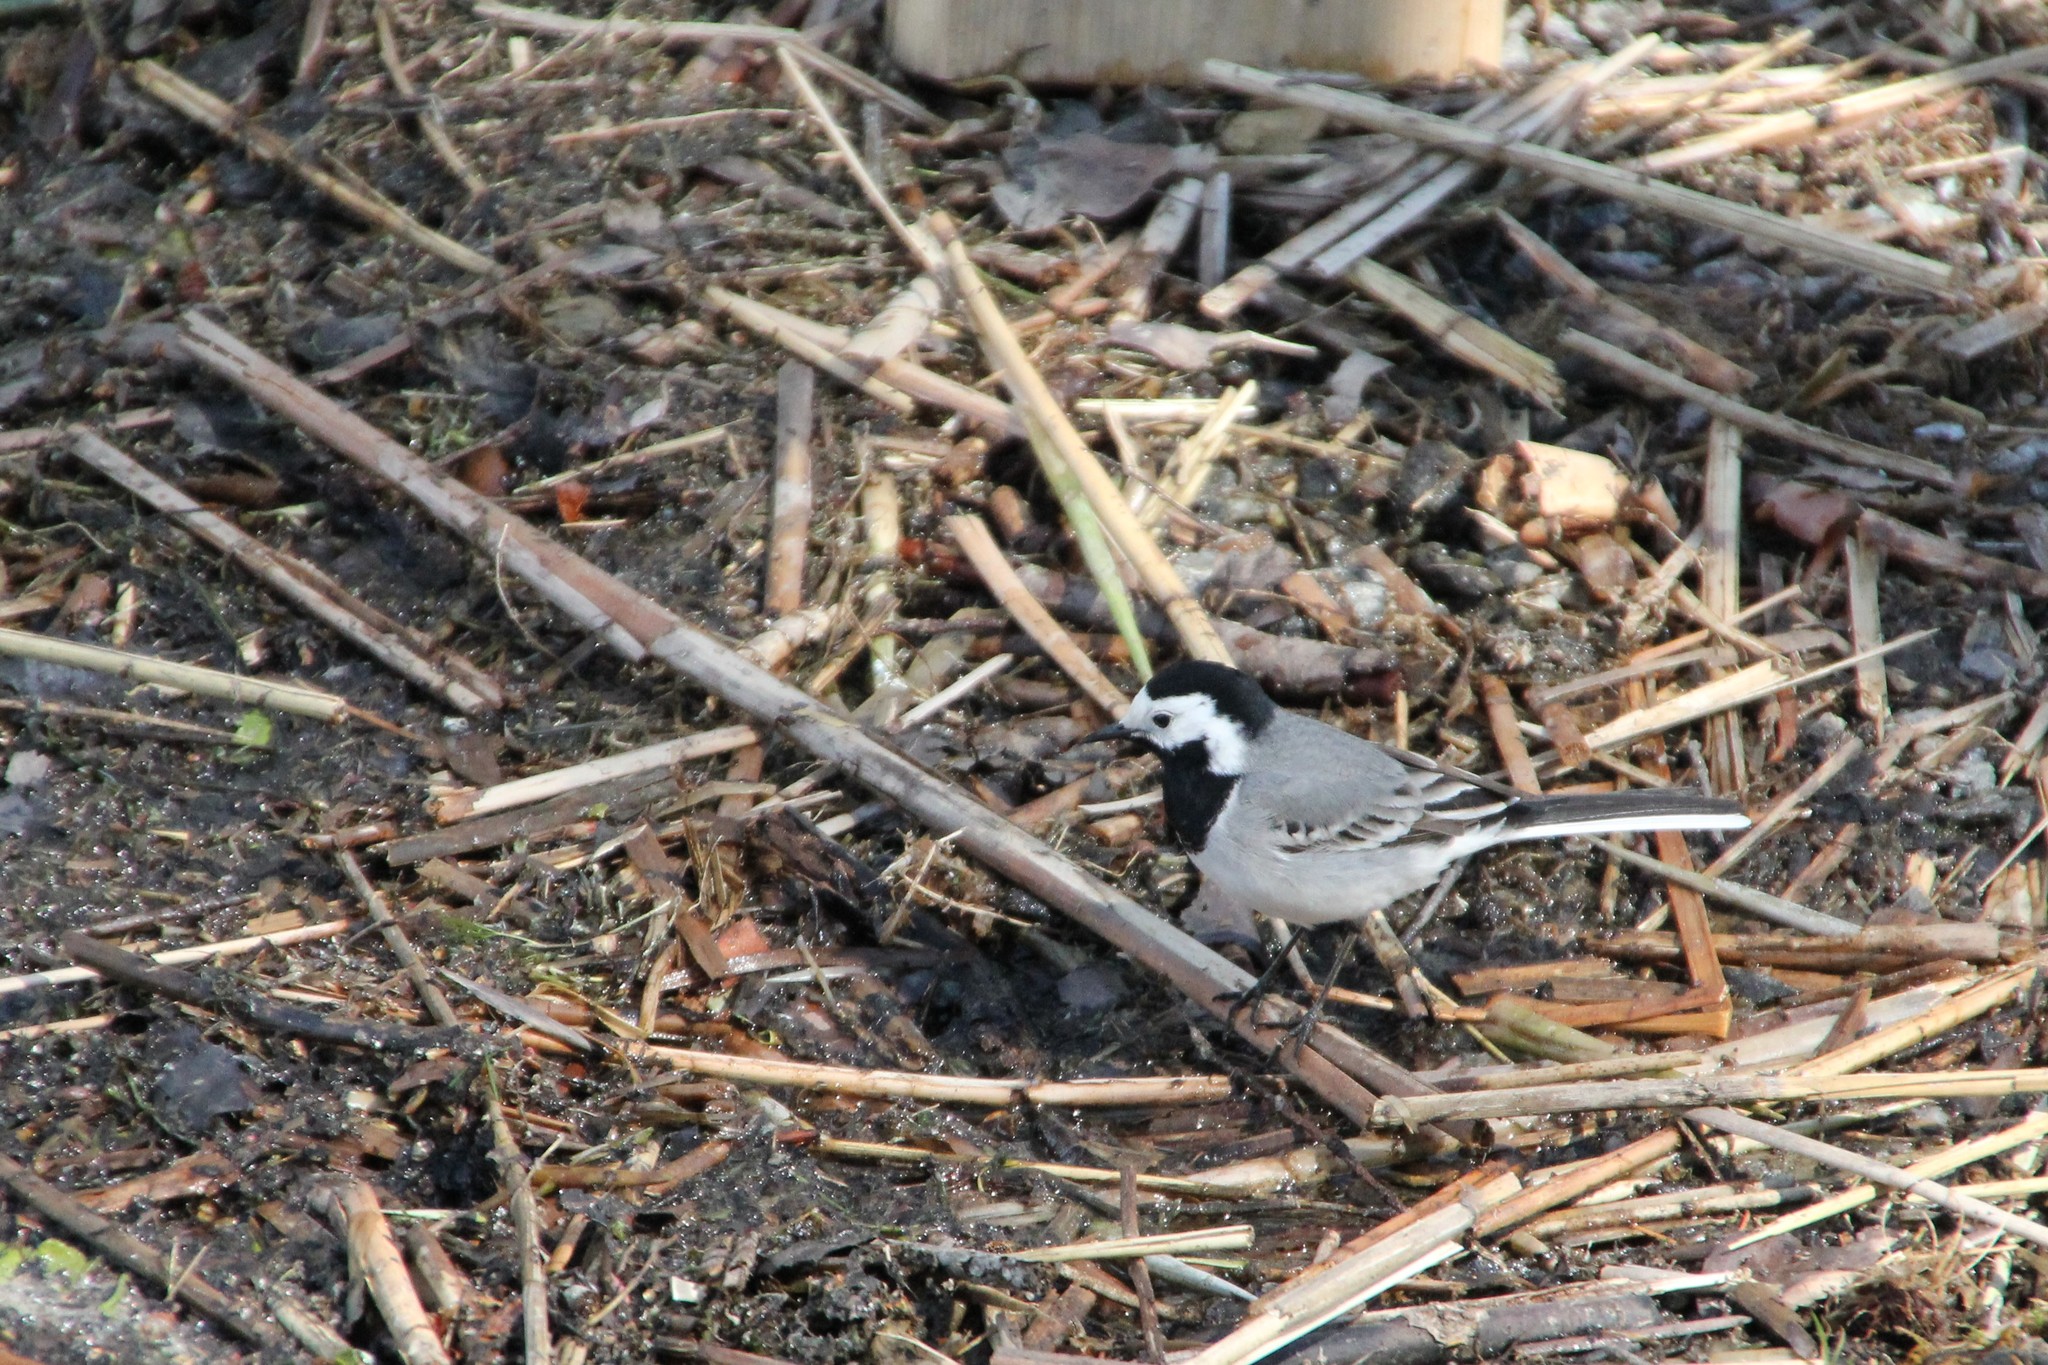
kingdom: Animalia
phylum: Chordata
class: Aves
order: Passeriformes
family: Motacillidae
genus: Motacilla
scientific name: Motacilla alba
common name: White wagtail
